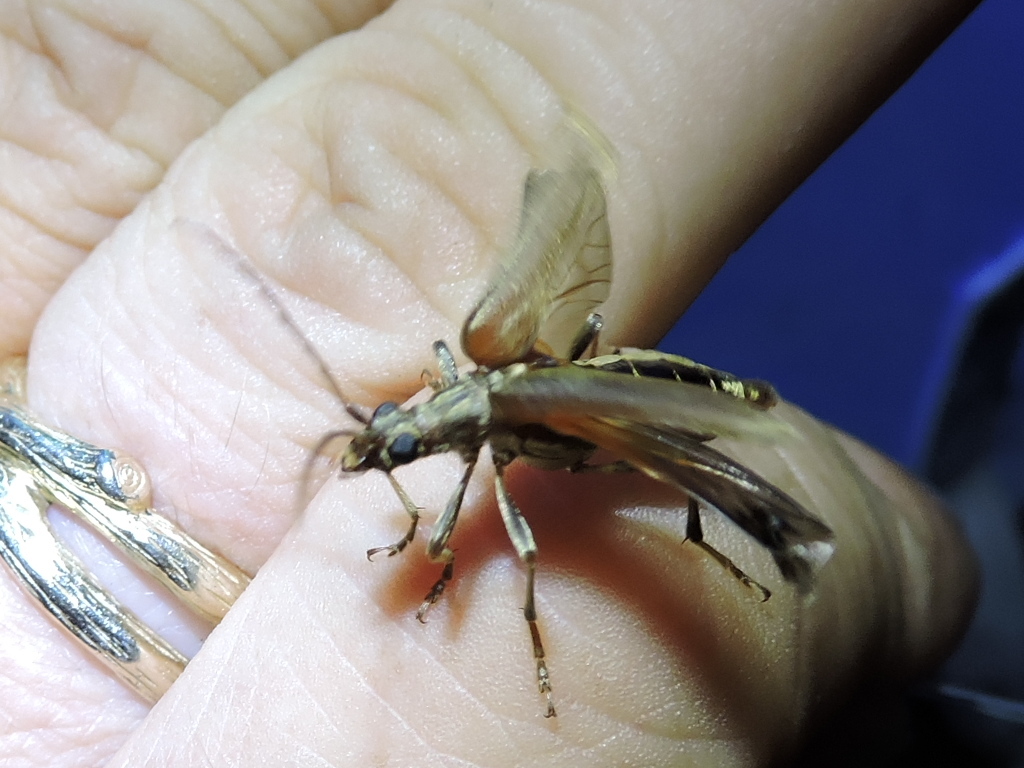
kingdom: Animalia
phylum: Arthropoda
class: Insecta
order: Coleoptera
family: Cerambycidae
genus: Stenocorus
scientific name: Stenocorus cinnamopterus
